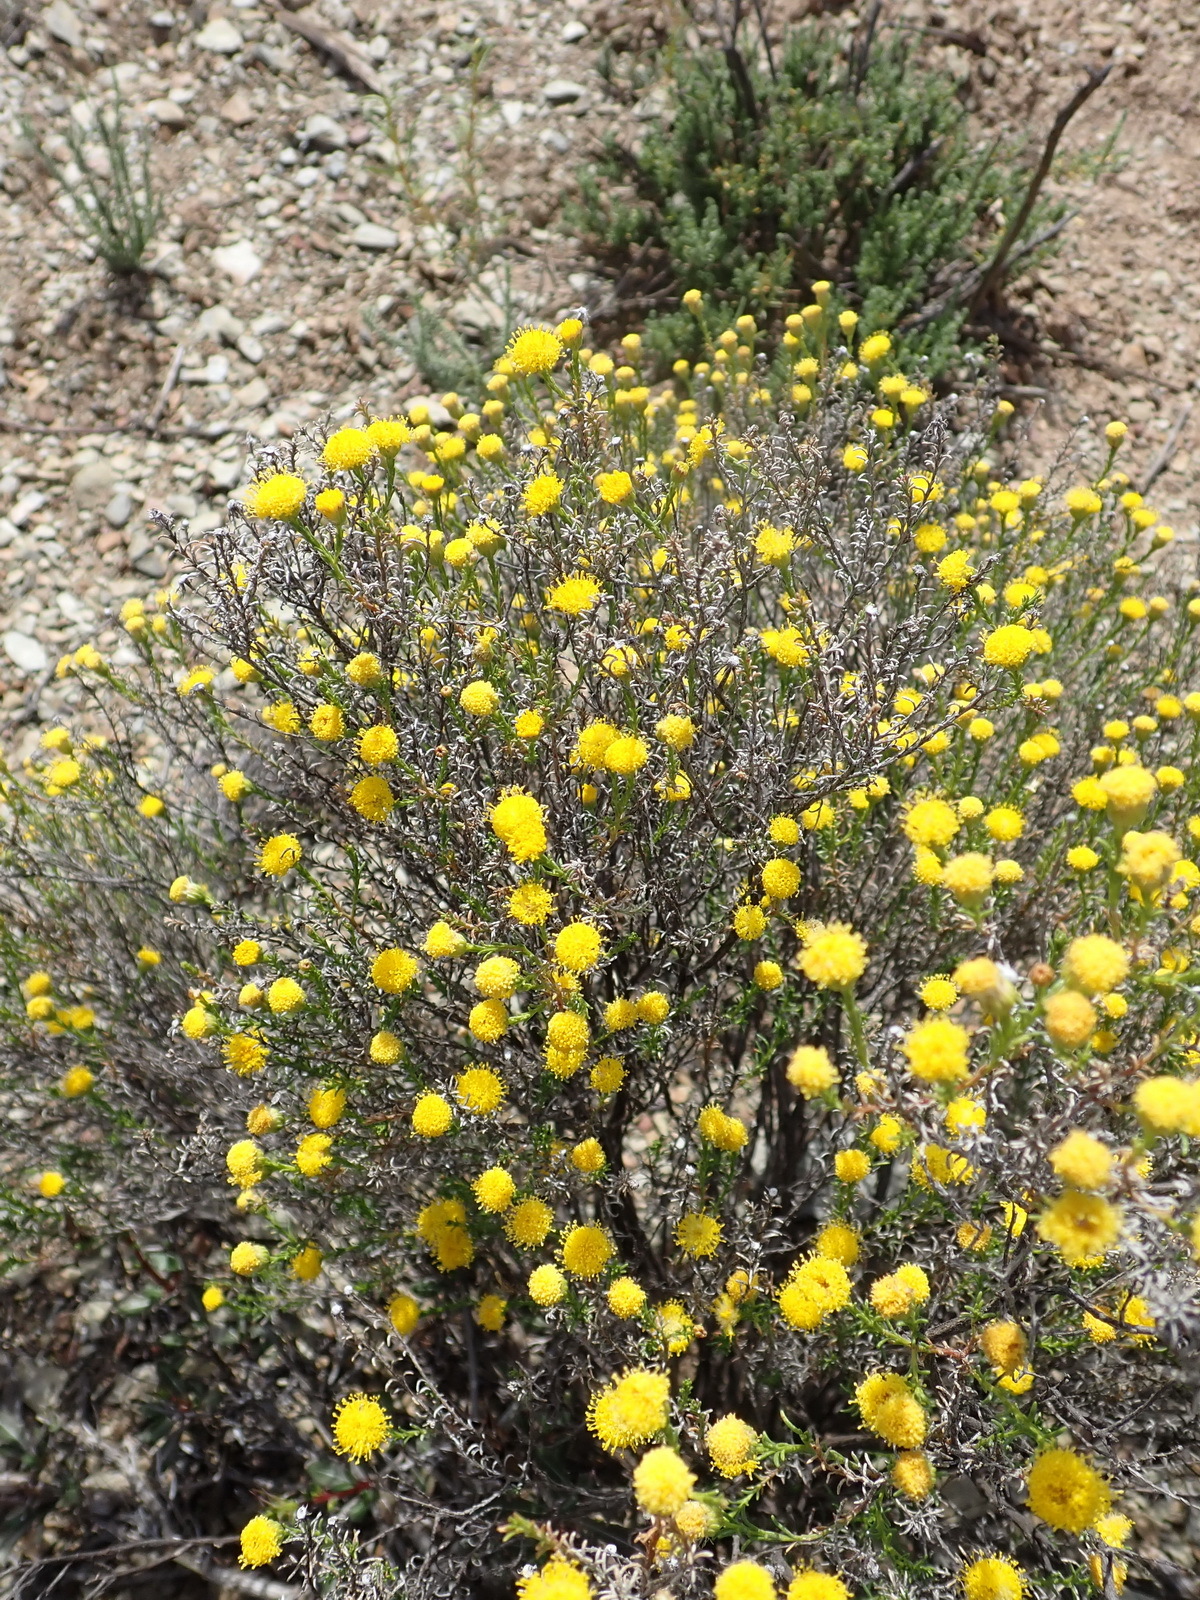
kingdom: Plantae
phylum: Tracheophyta
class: Magnoliopsida
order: Asterales
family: Asteraceae
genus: Chrysocoma
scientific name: Chrysocoma ciliata
